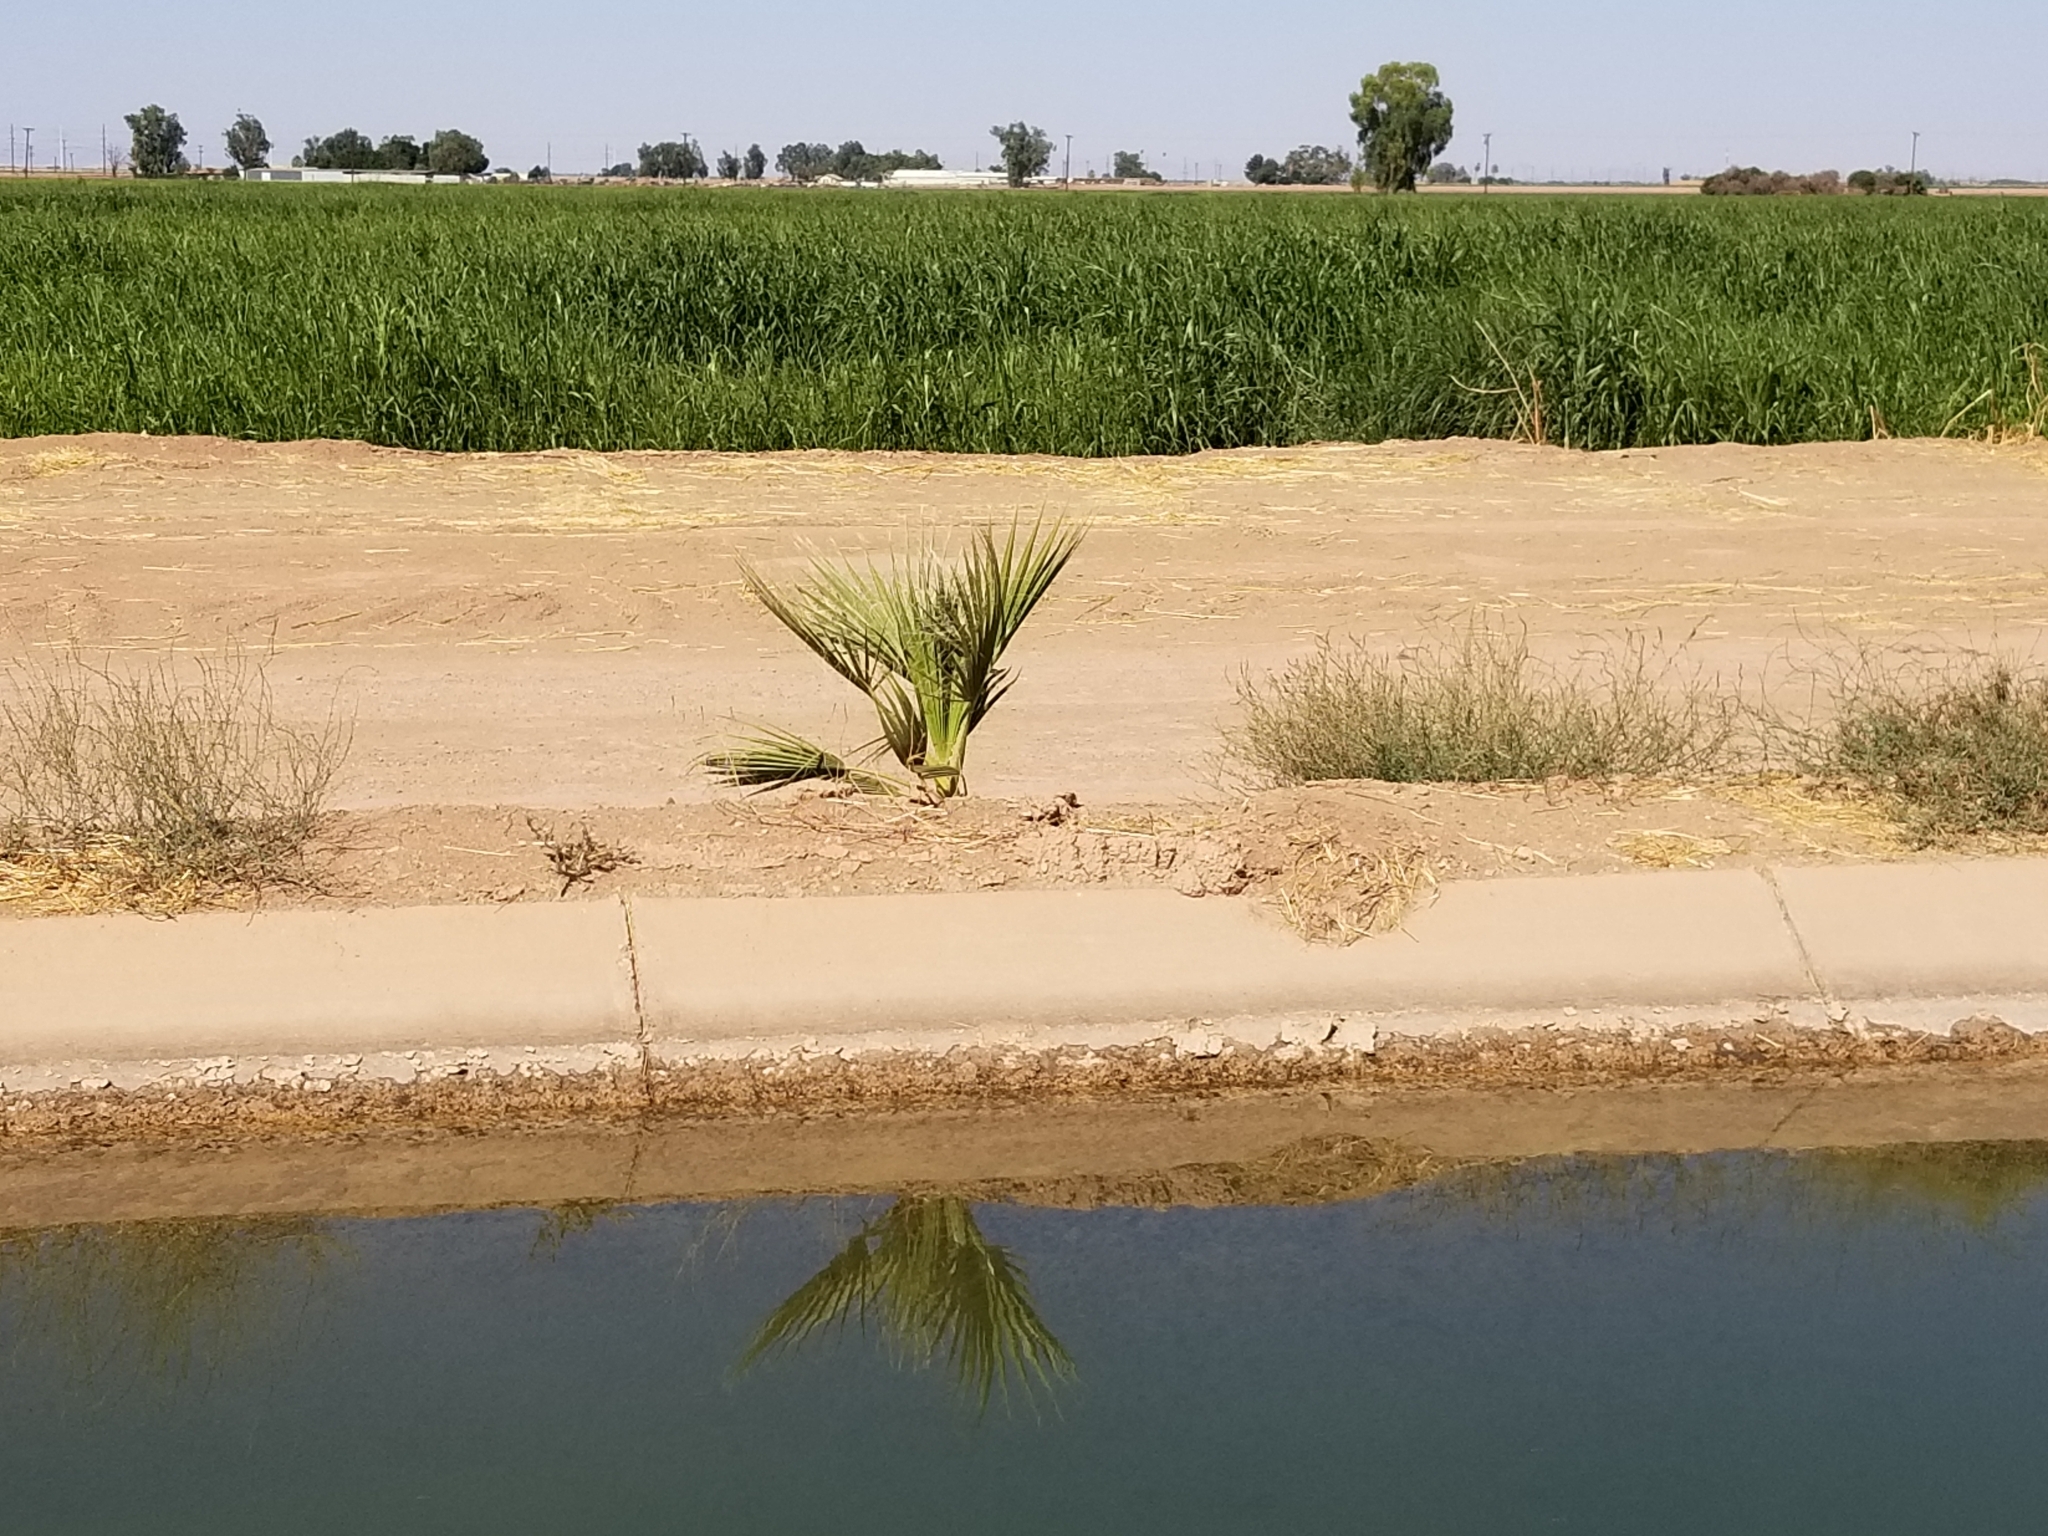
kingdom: Plantae
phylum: Tracheophyta
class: Liliopsida
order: Arecales
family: Arecaceae
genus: Washingtonia
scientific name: Washingtonia filifera
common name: California fan palm
